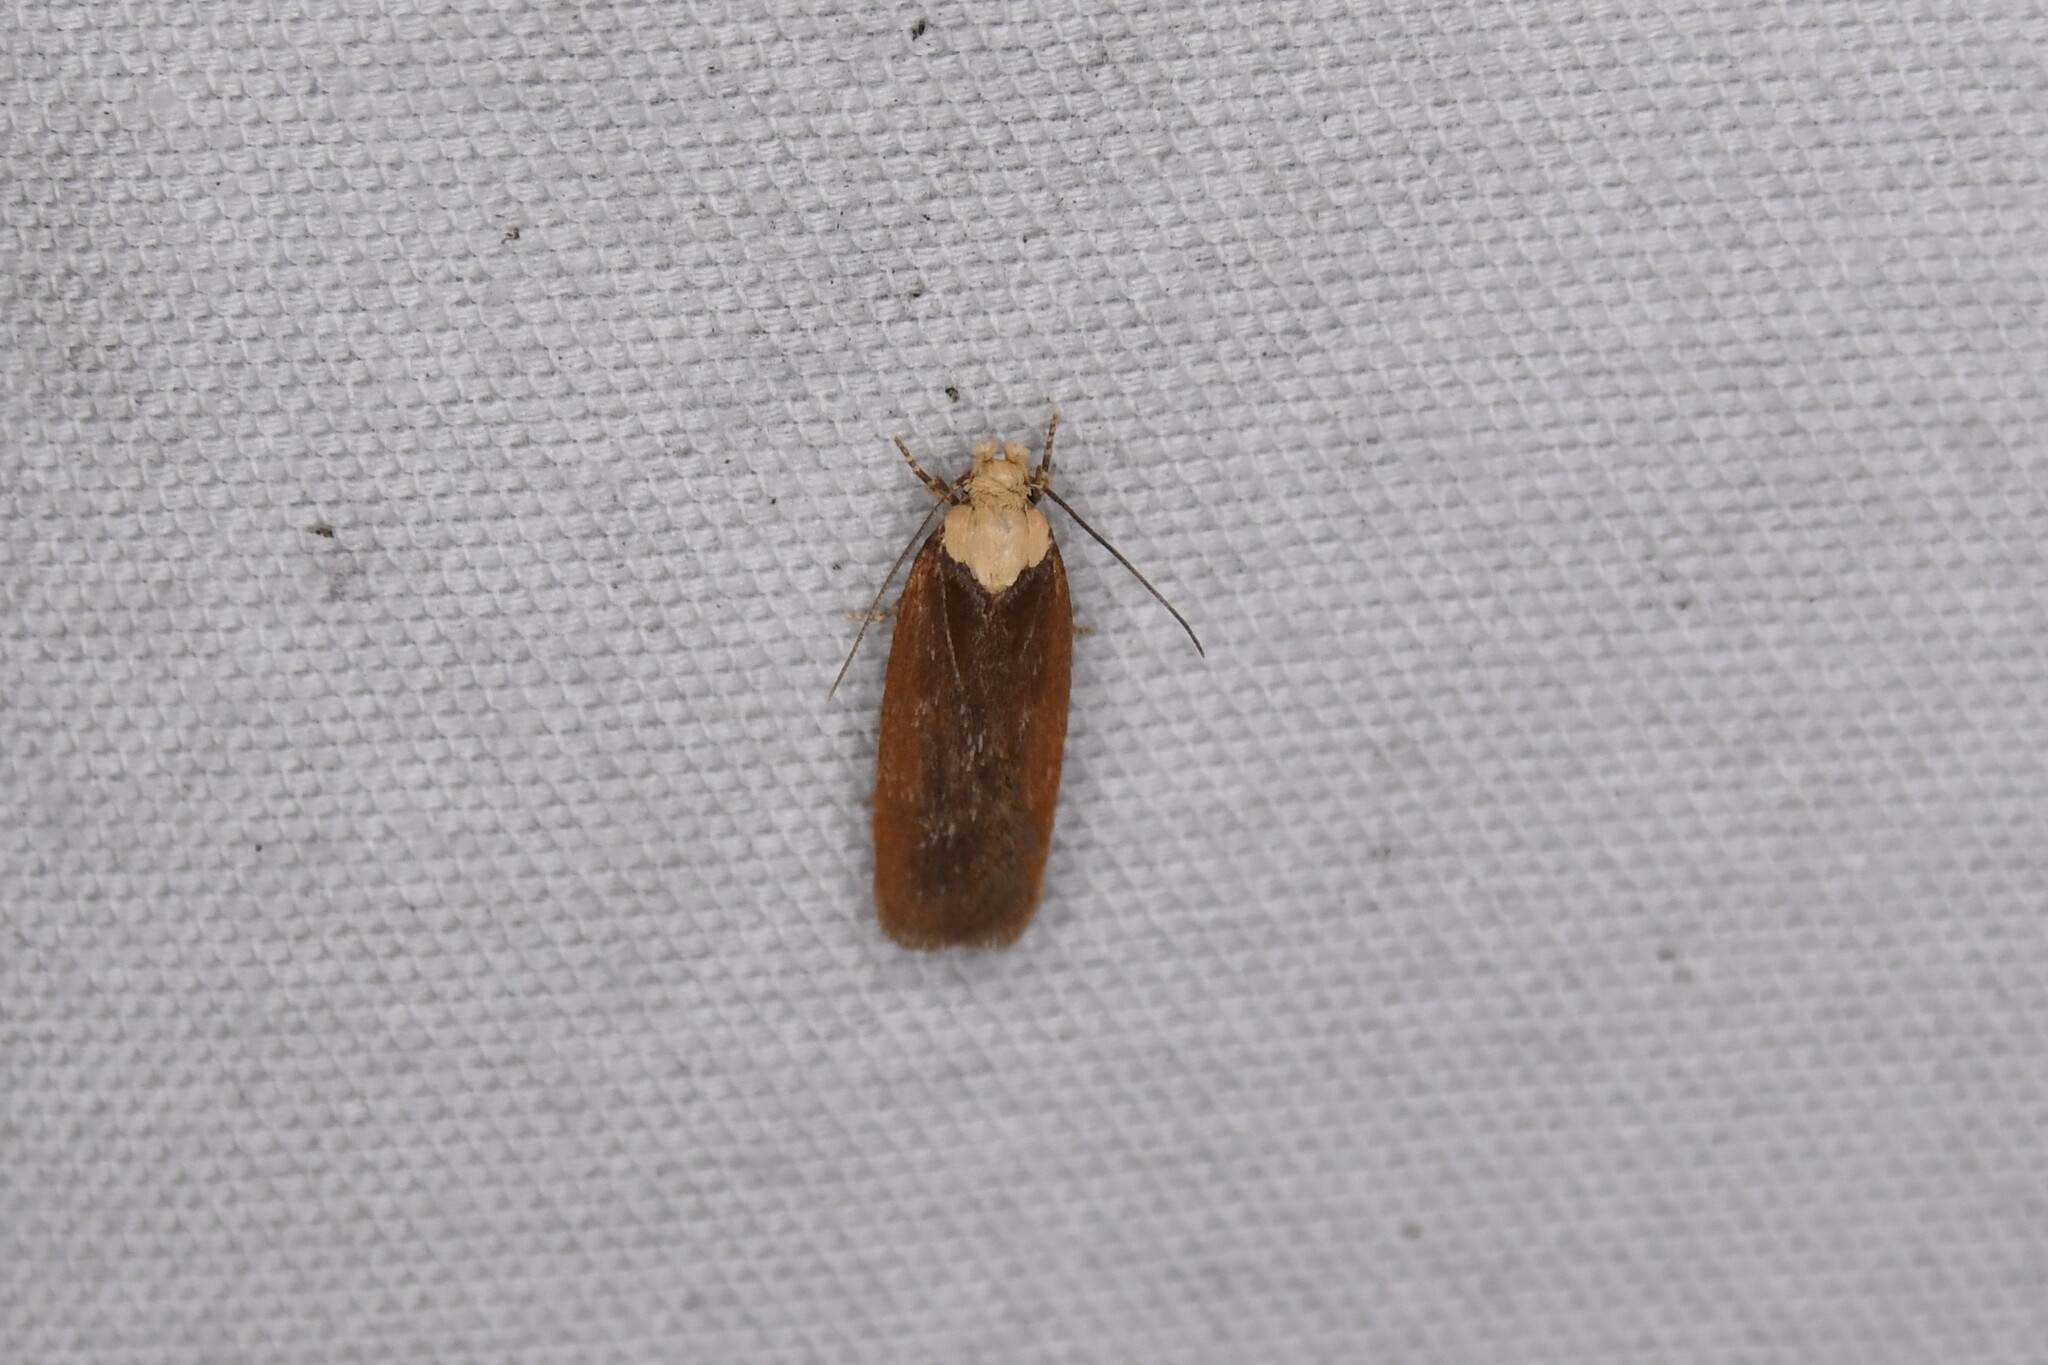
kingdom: Animalia
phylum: Arthropoda
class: Insecta
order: Lepidoptera
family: Depressariidae
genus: Depressaria
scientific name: Depressaria depressana
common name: Lost flat-body
